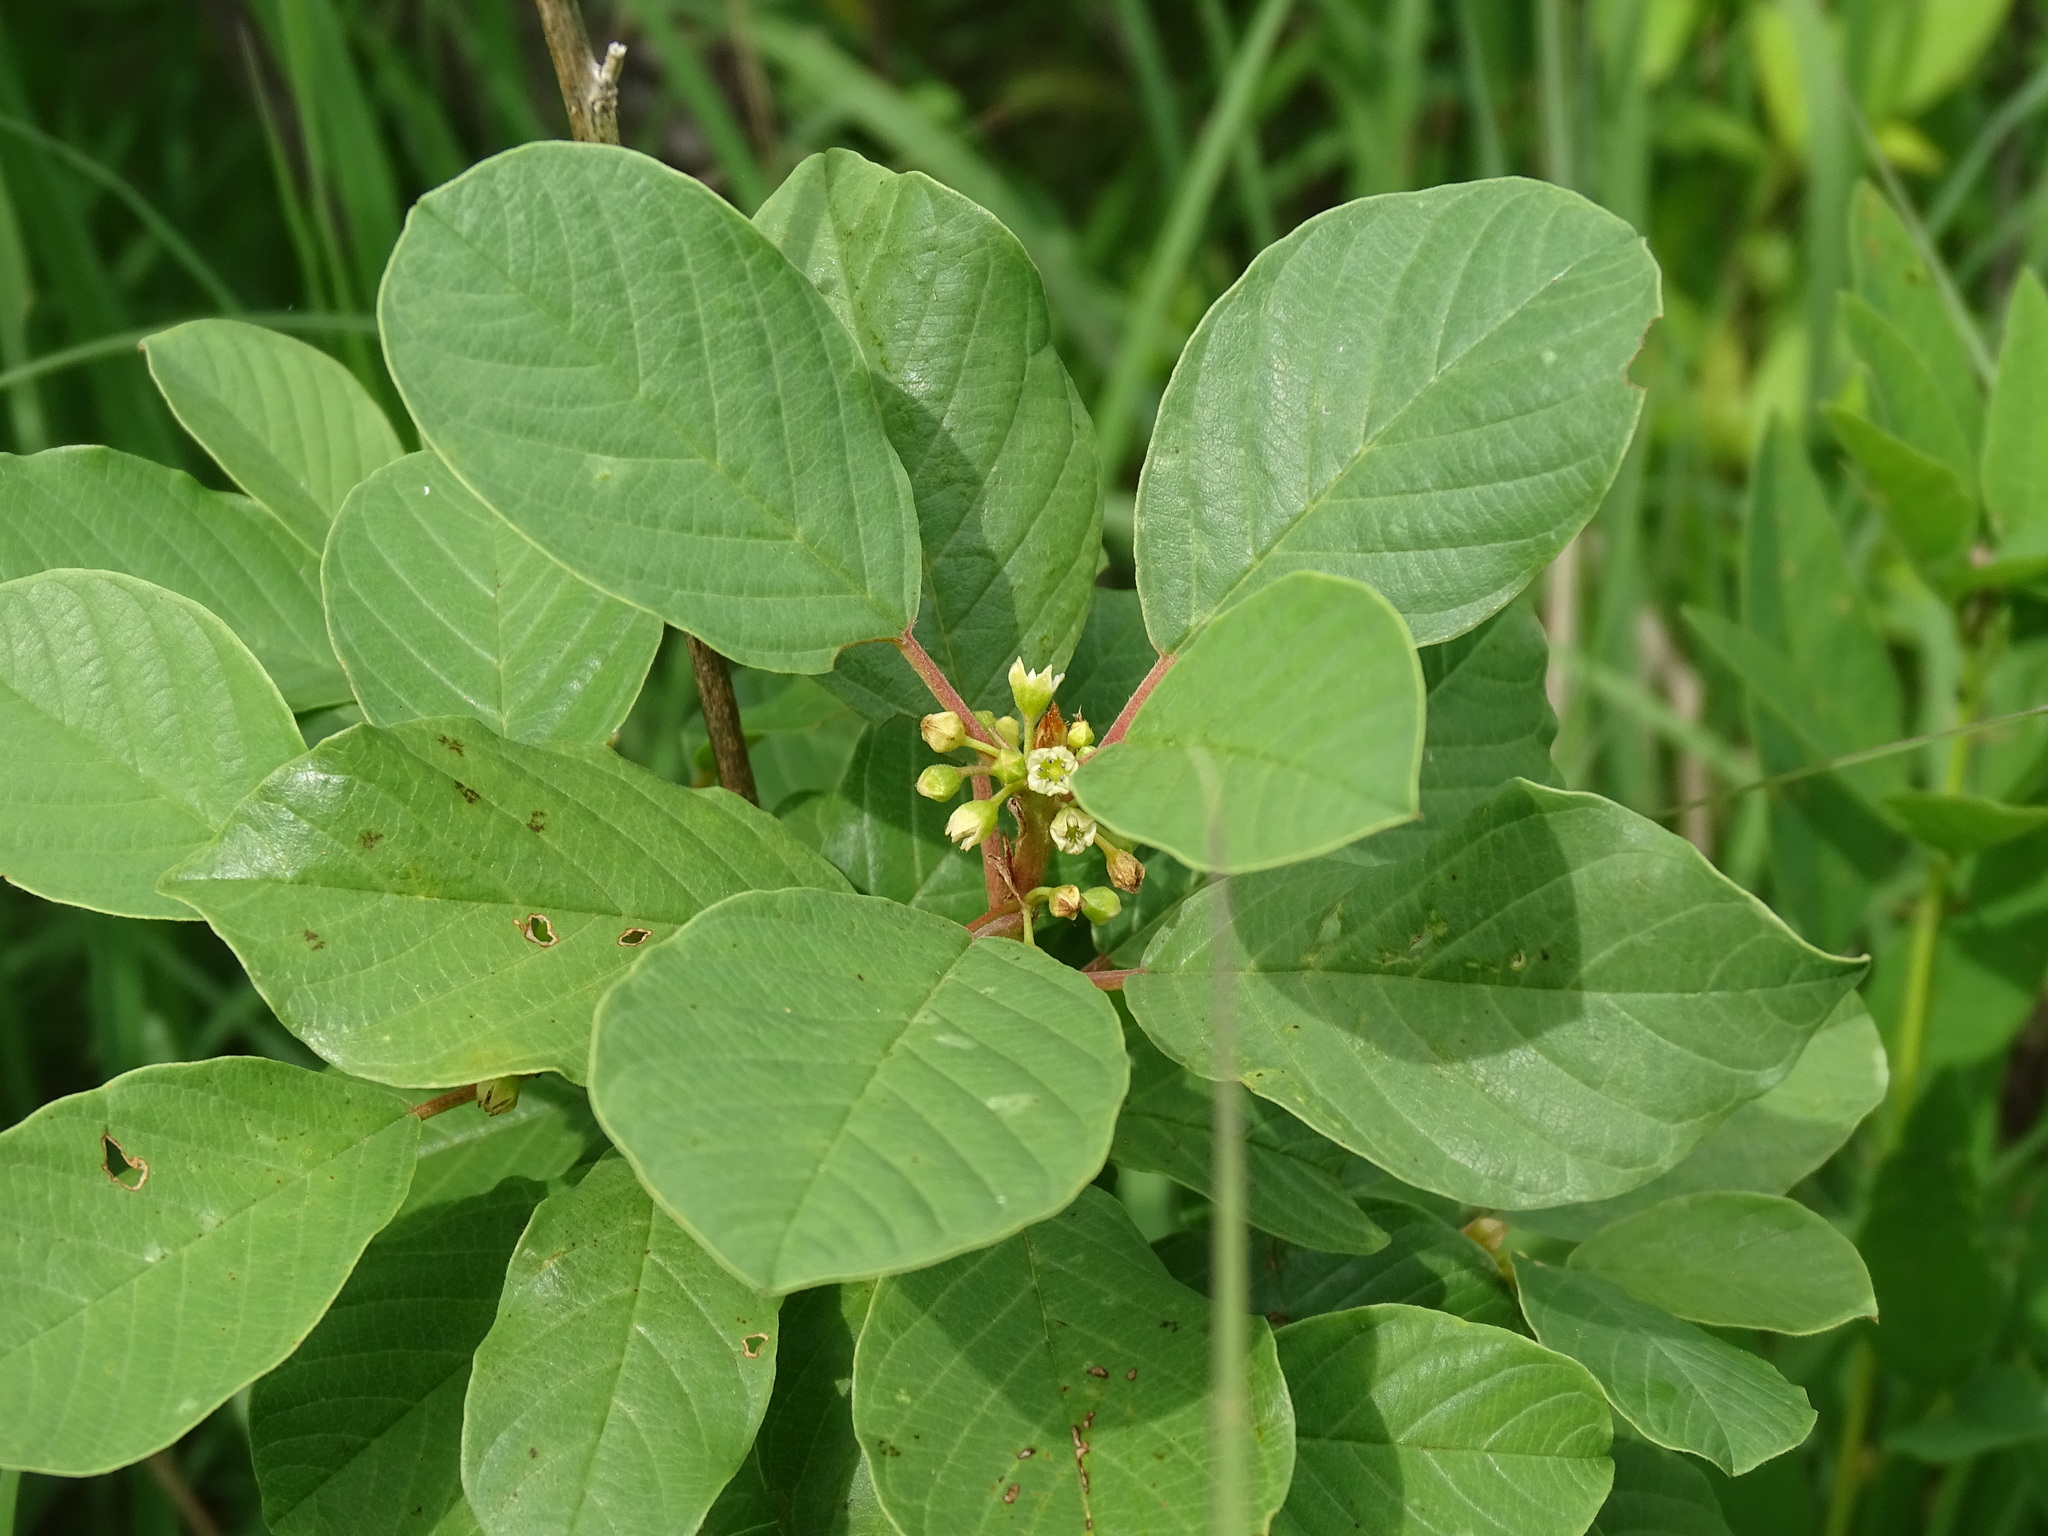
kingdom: Plantae
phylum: Tracheophyta
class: Magnoliopsida
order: Rosales
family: Rhamnaceae
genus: Frangula
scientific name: Frangula alnus
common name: Alder buckthorn
